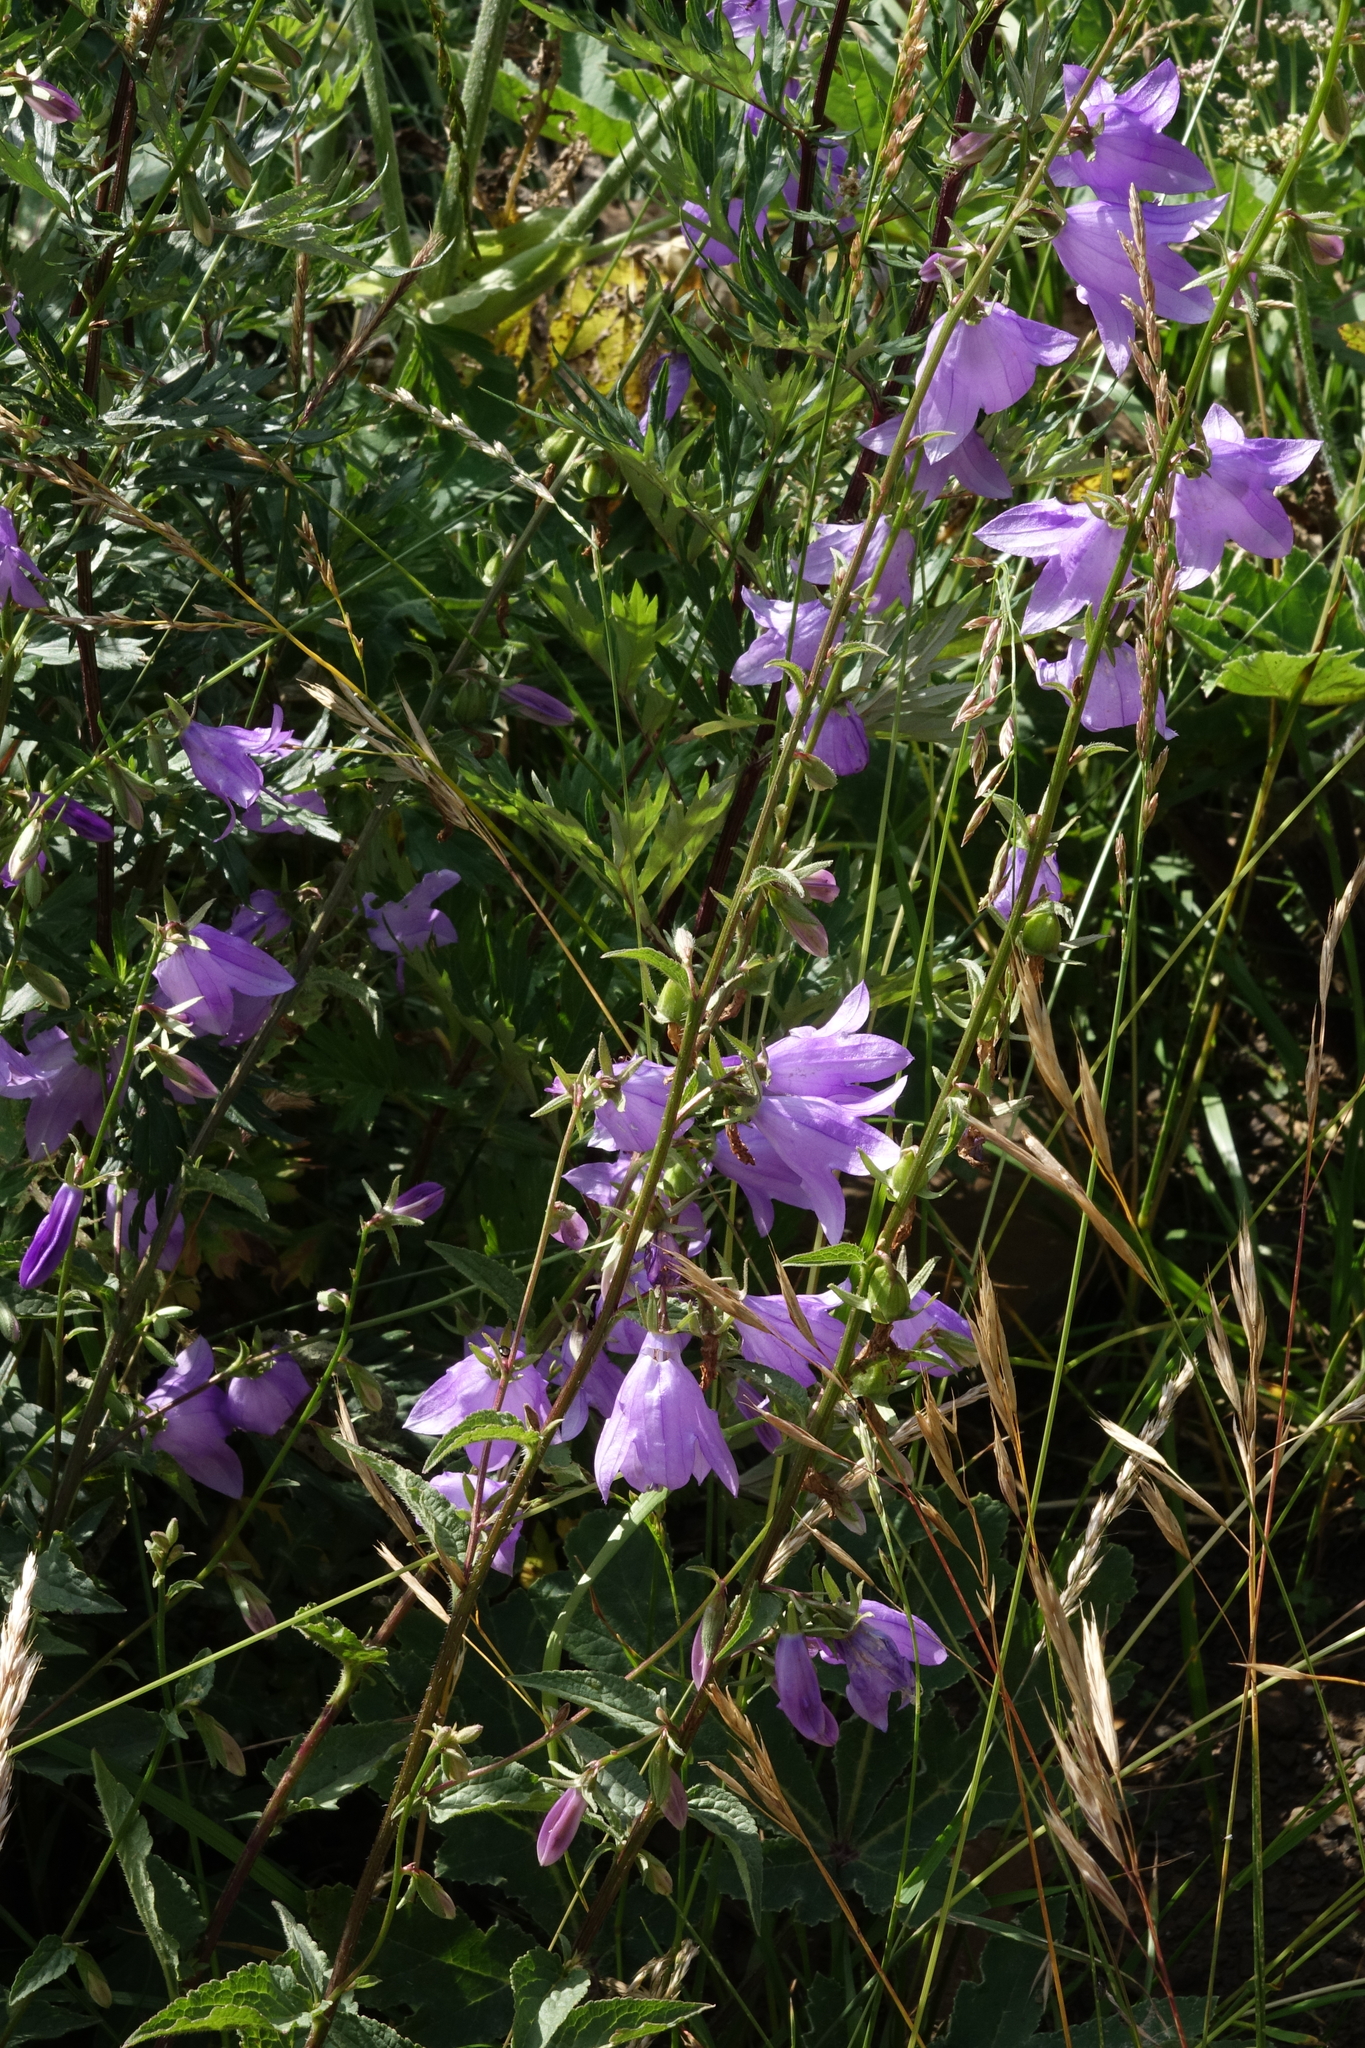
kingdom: Plantae
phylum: Tracheophyta
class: Magnoliopsida
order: Asterales
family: Campanulaceae
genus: Campanula
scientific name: Campanula rapunculoides
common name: Creeping bellflower
